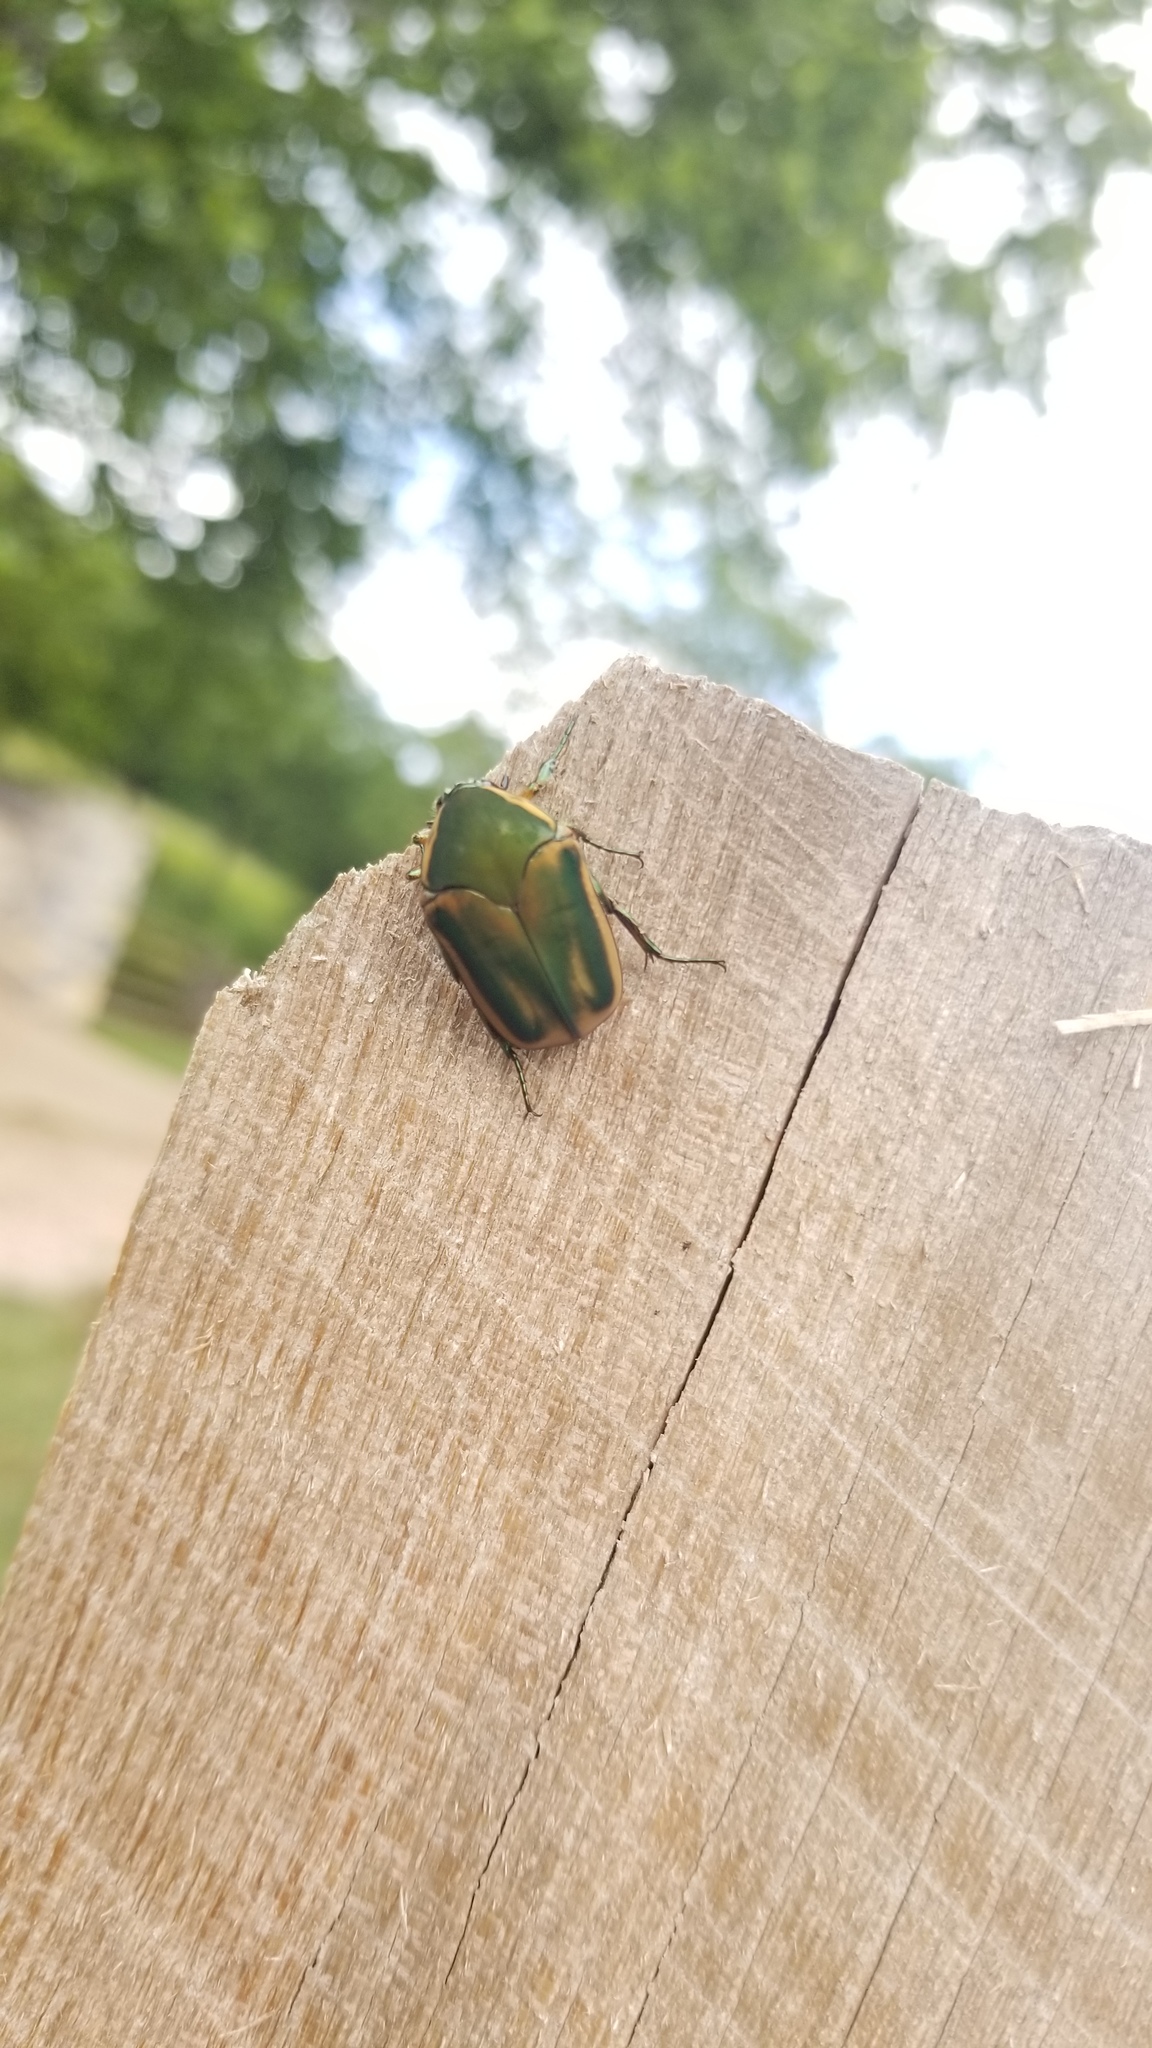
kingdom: Animalia
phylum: Arthropoda
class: Insecta
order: Coleoptera
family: Scarabaeidae
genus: Cotinis
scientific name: Cotinis nitida
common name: Common green june beetle
